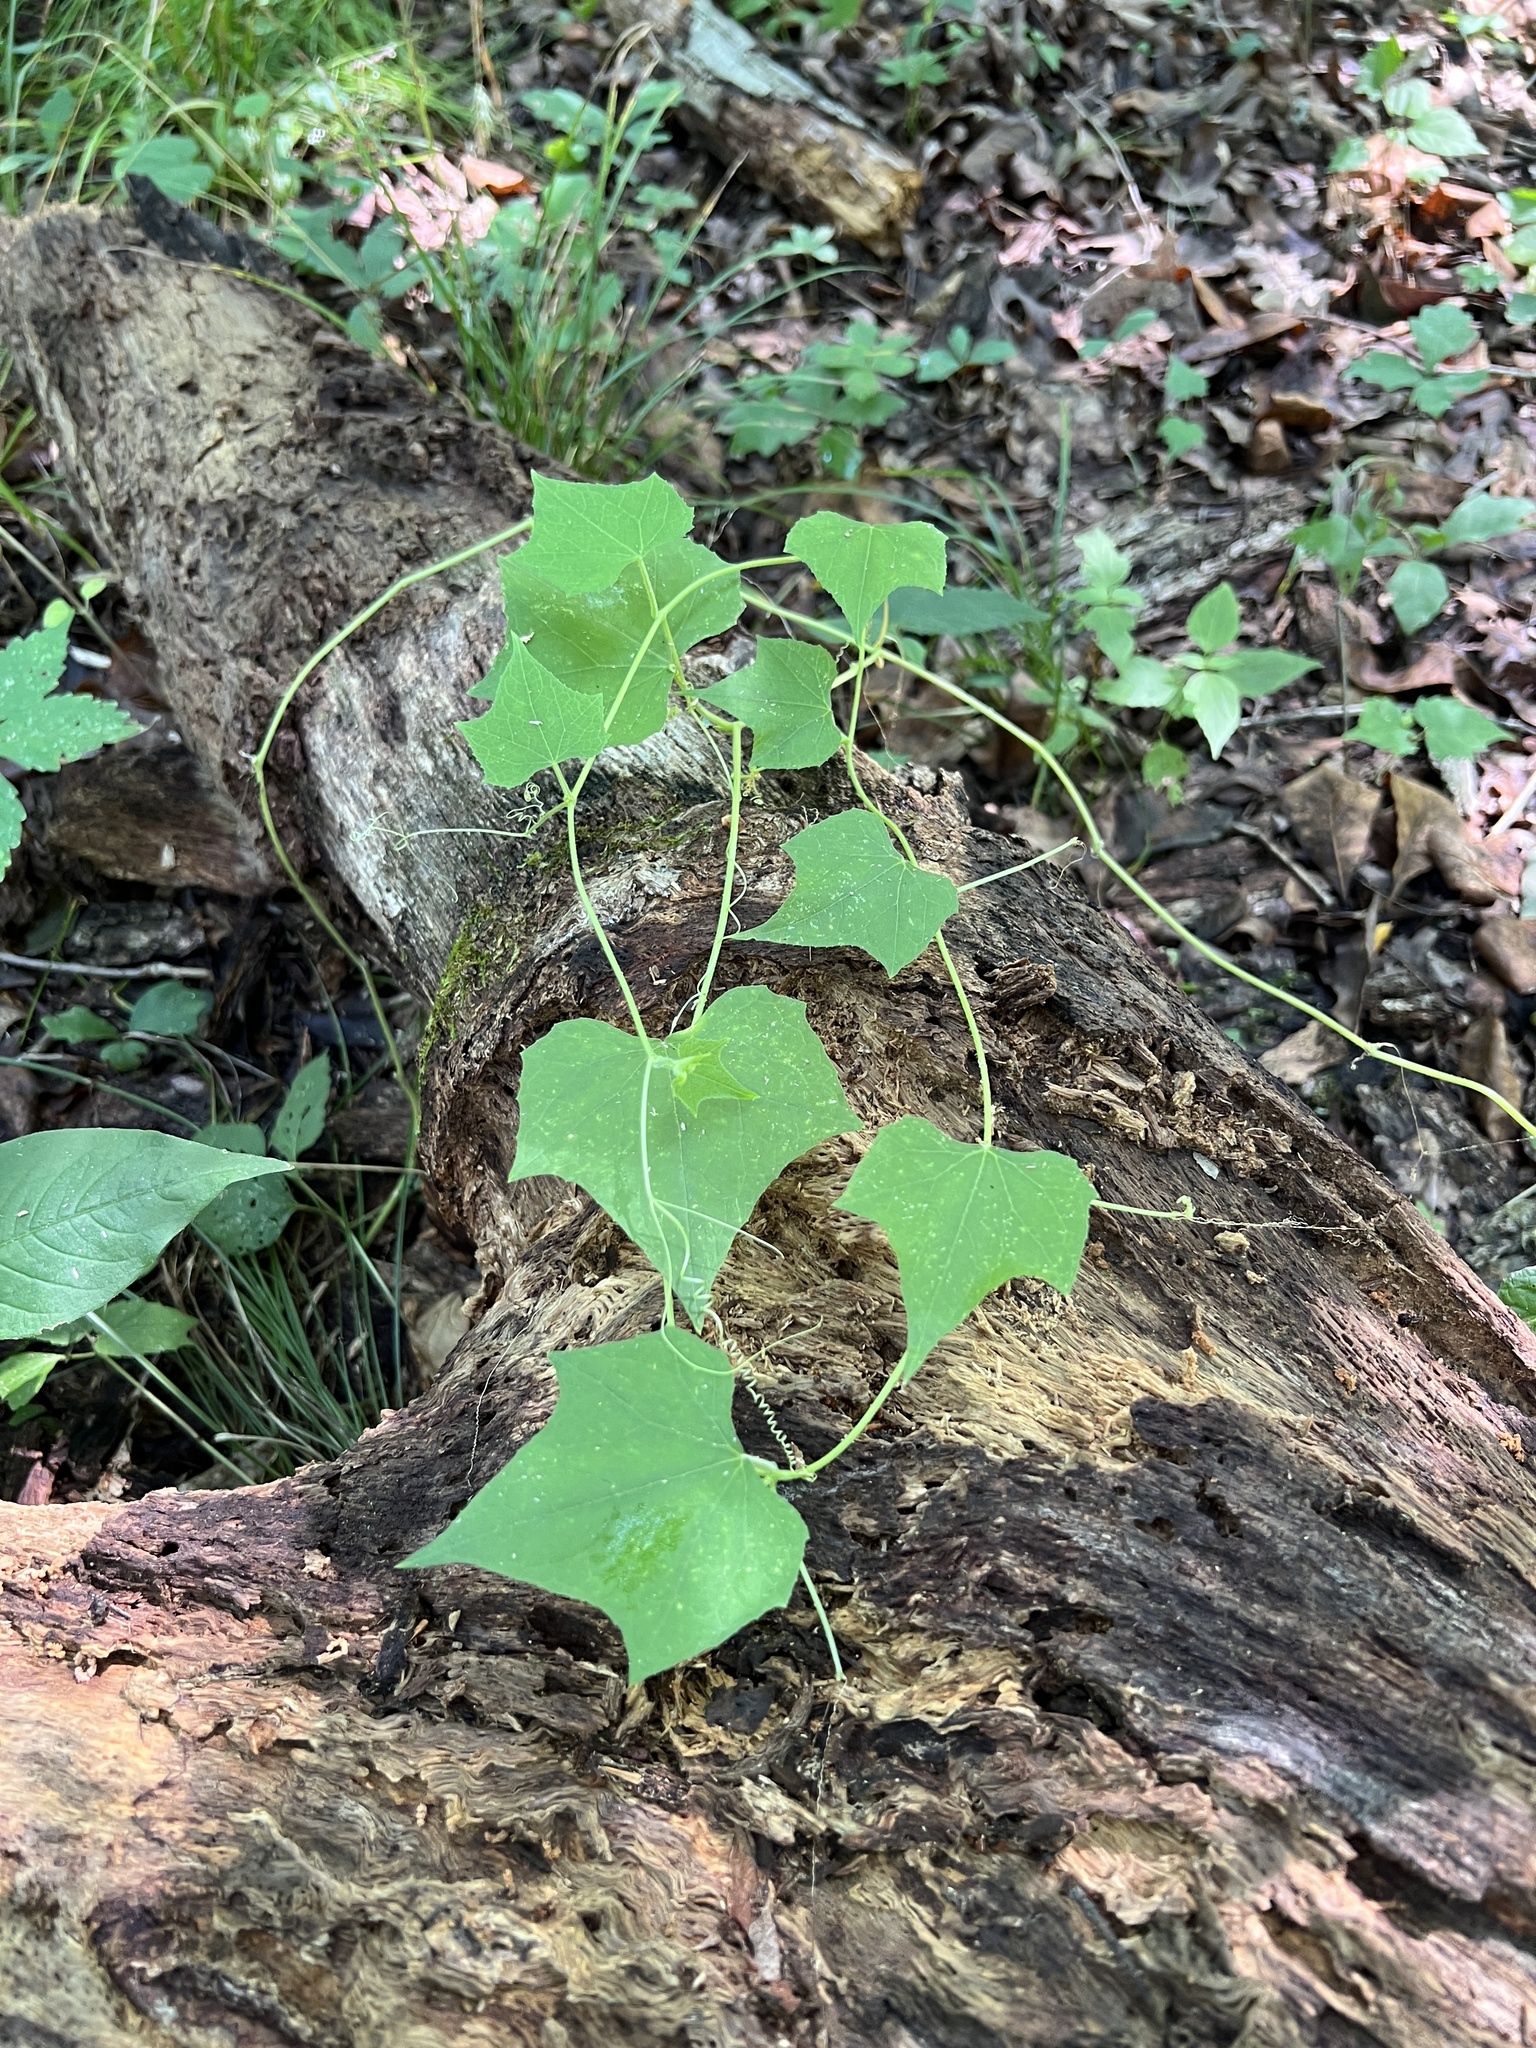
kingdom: Plantae
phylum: Tracheophyta
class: Magnoliopsida
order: Cucurbitales
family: Cucurbitaceae
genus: Sicyos
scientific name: Sicyos angulatus
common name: Angled burr cucumber
